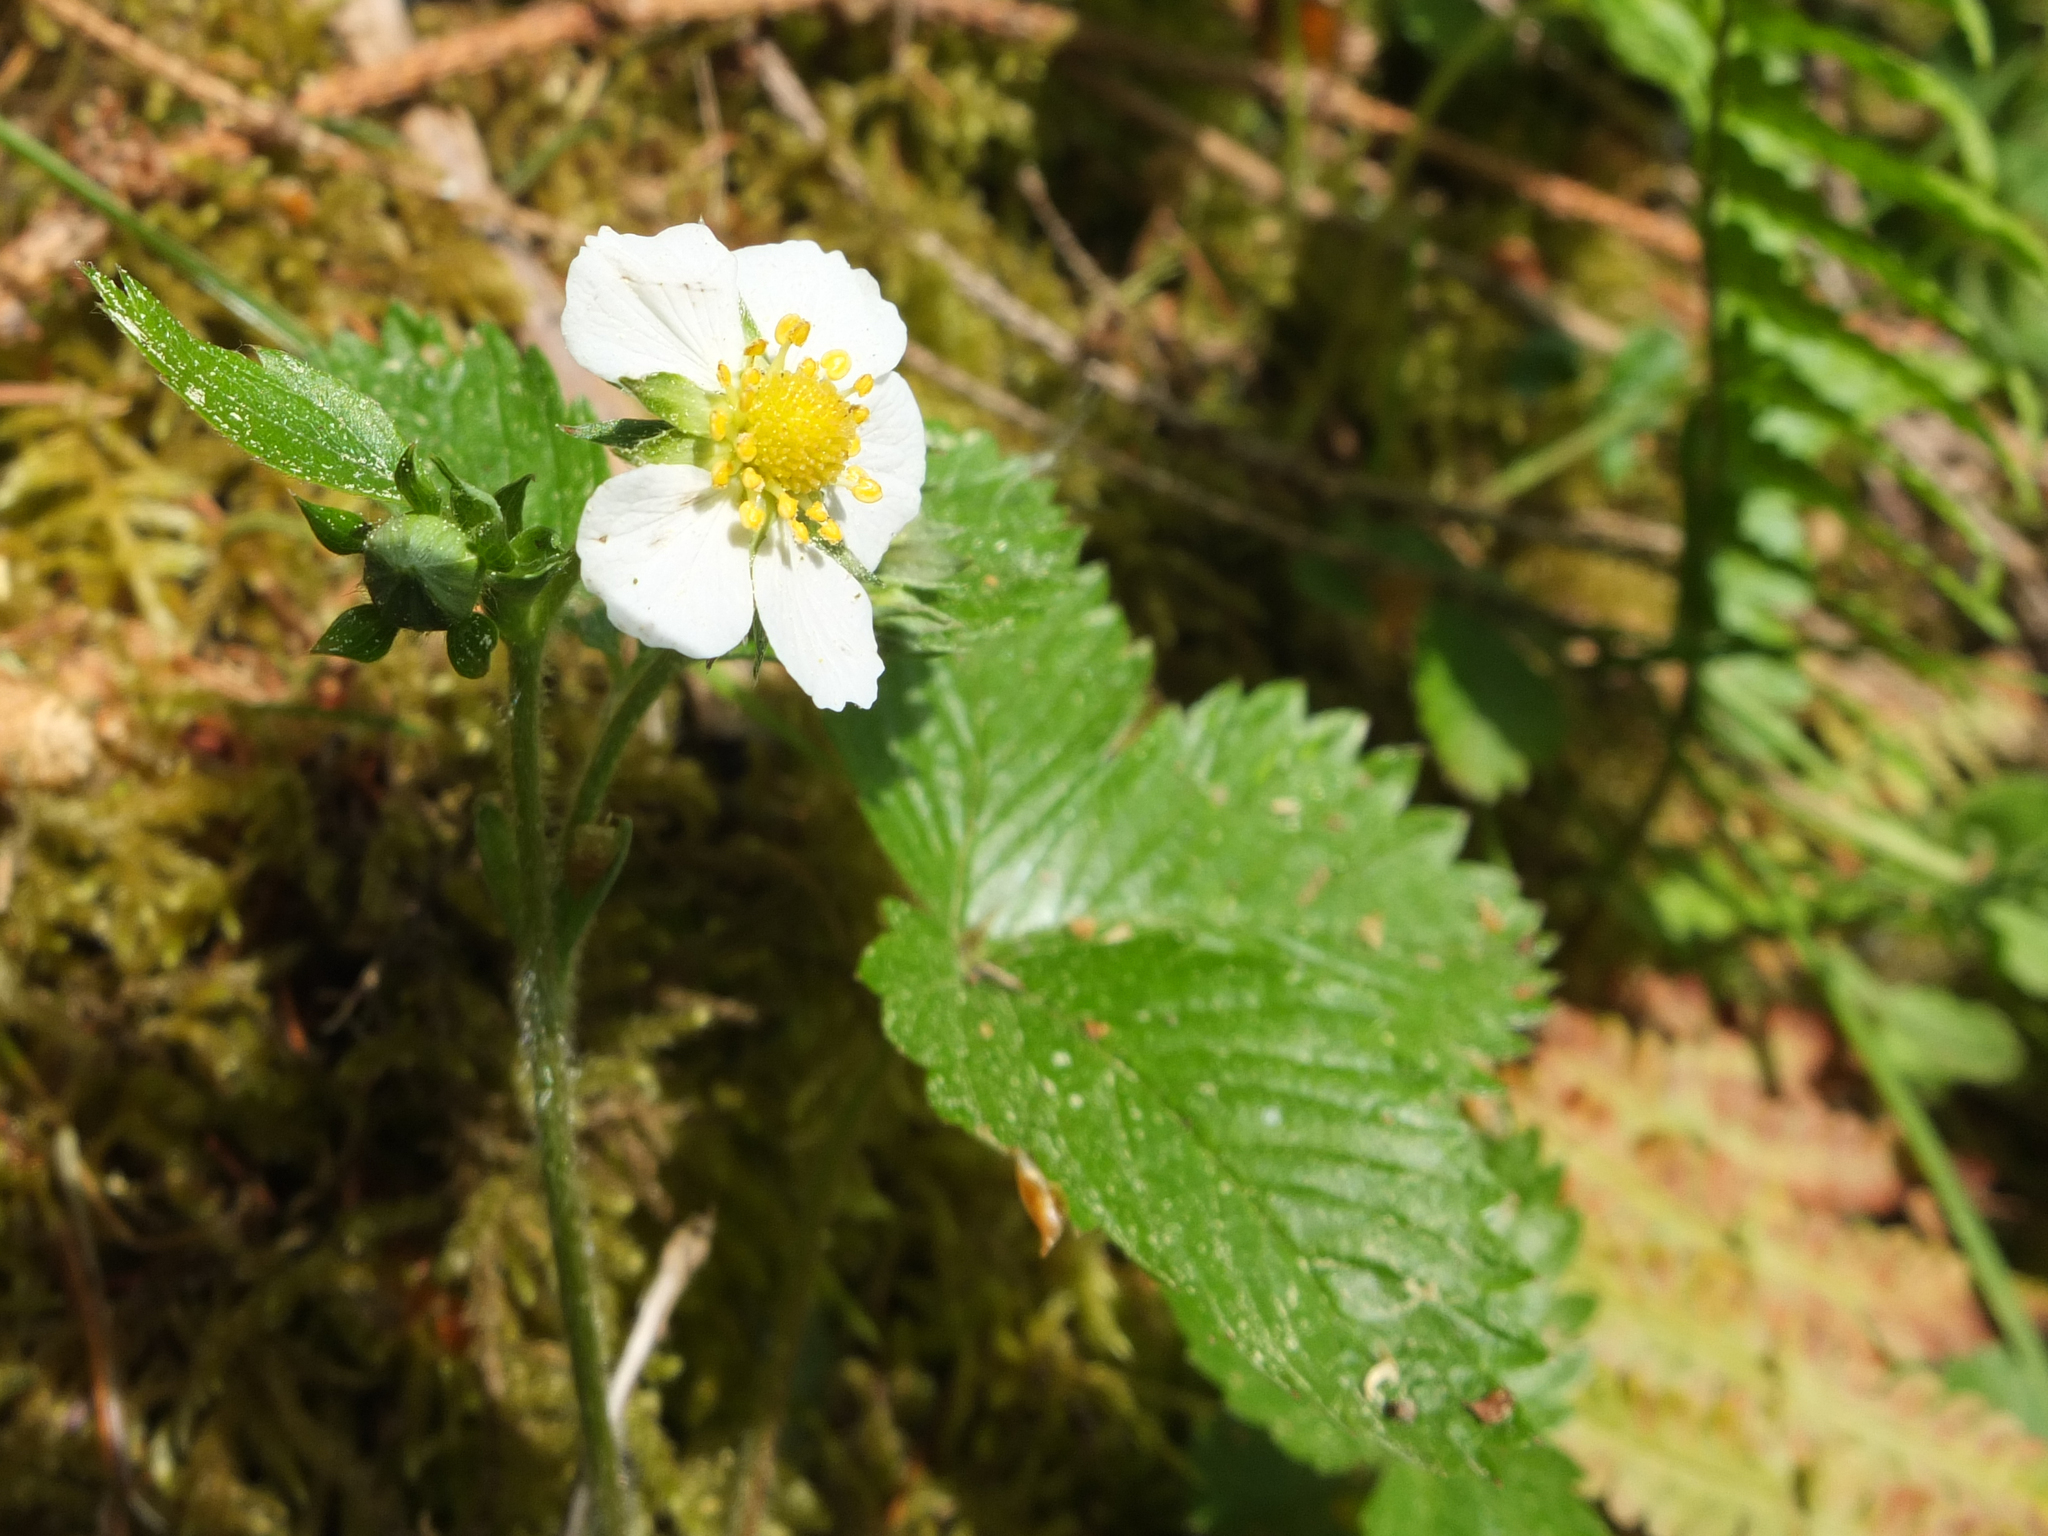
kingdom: Plantae
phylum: Tracheophyta
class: Magnoliopsida
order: Rosales
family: Rosaceae
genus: Fragaria
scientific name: Fragaria vesca
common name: Wild strawberry
